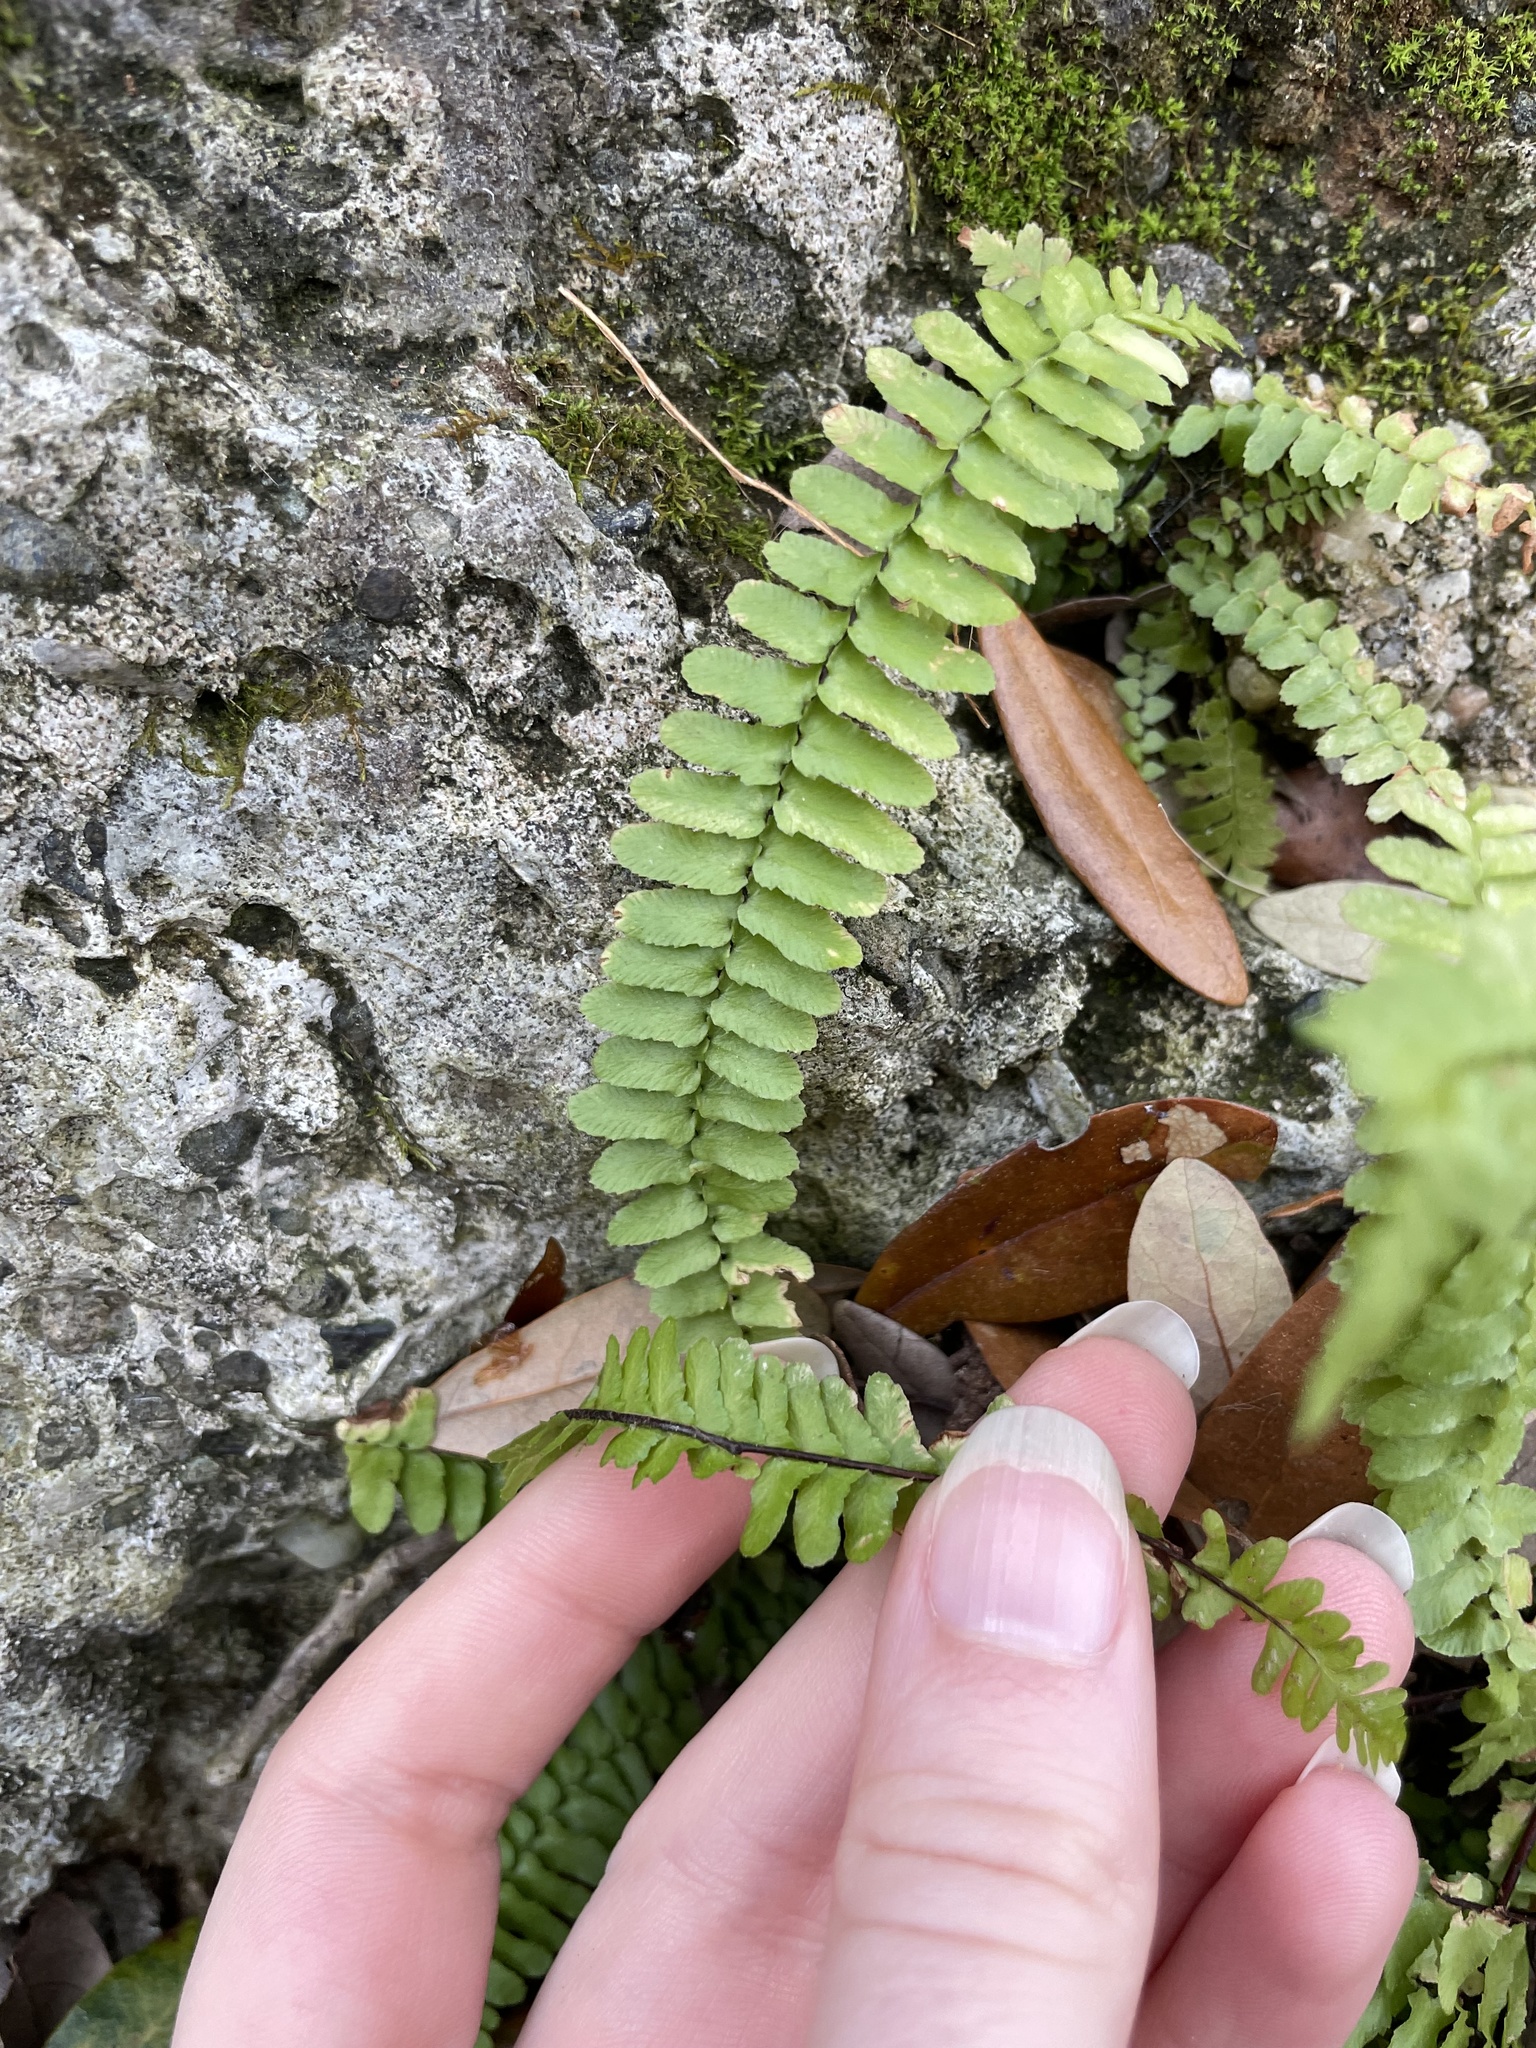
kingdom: Plantae
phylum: Tracheophyta
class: Polypodiopsida
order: Polypodiales
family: Aspleniaceae
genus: Asplenium
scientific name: Asplenium platyneuron
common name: Ebony spleenwort
